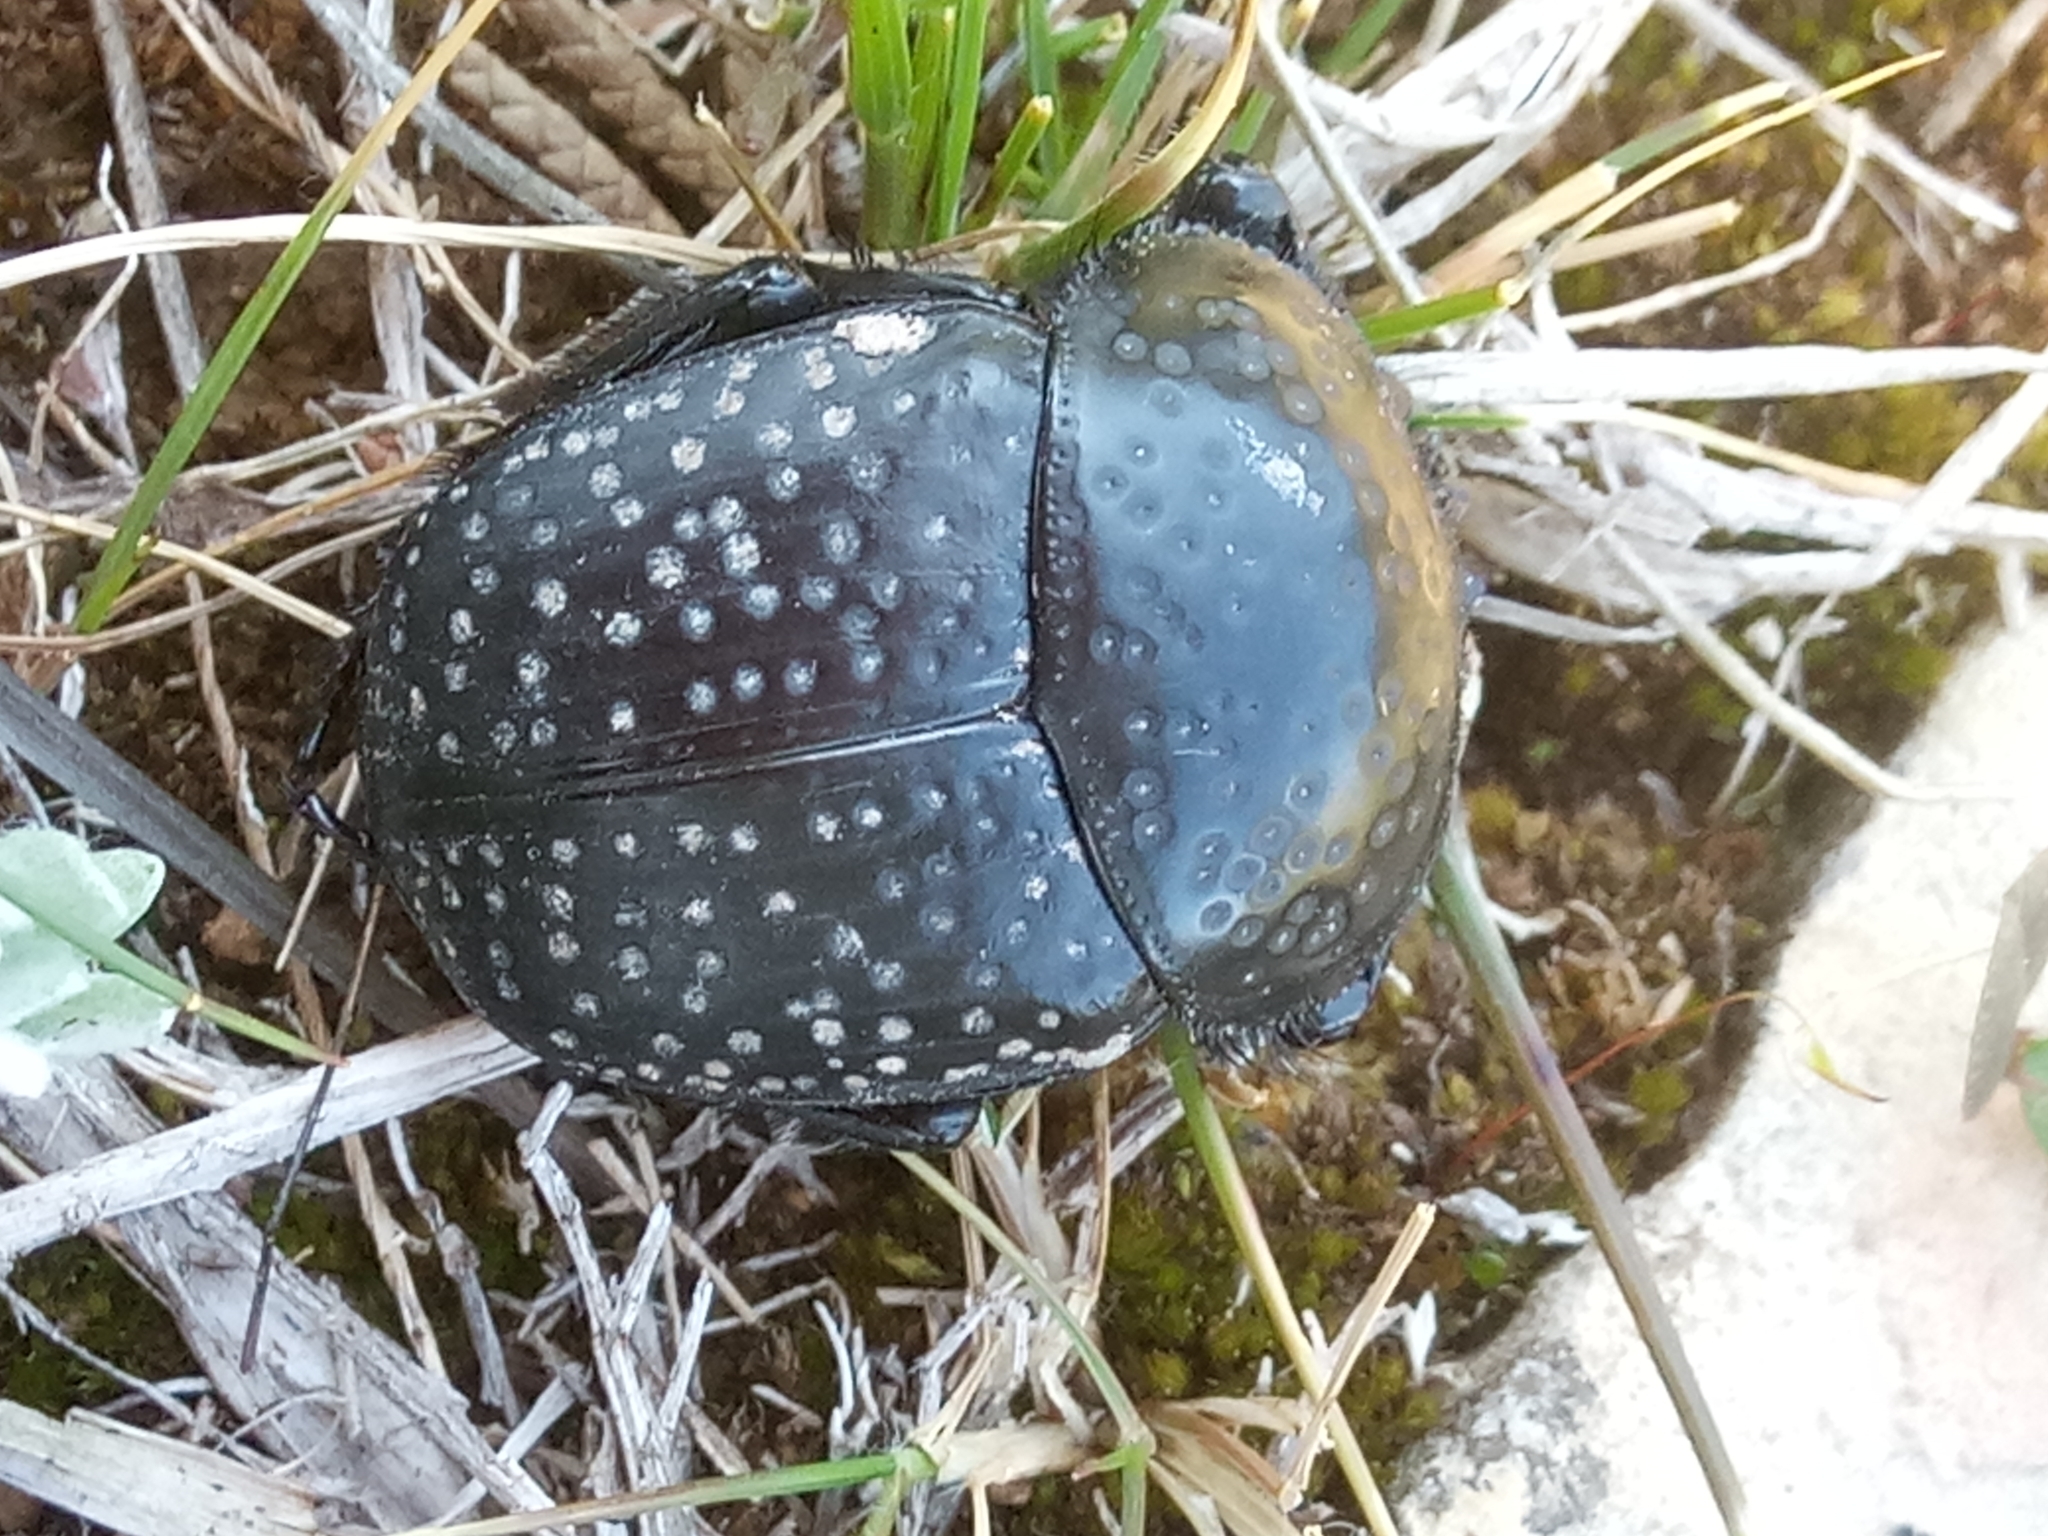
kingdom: Animalia
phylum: Arthropoda
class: Insecta
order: Coleoptera
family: Scarabaeidae
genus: Ateuchetus
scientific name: Ateuchetus
